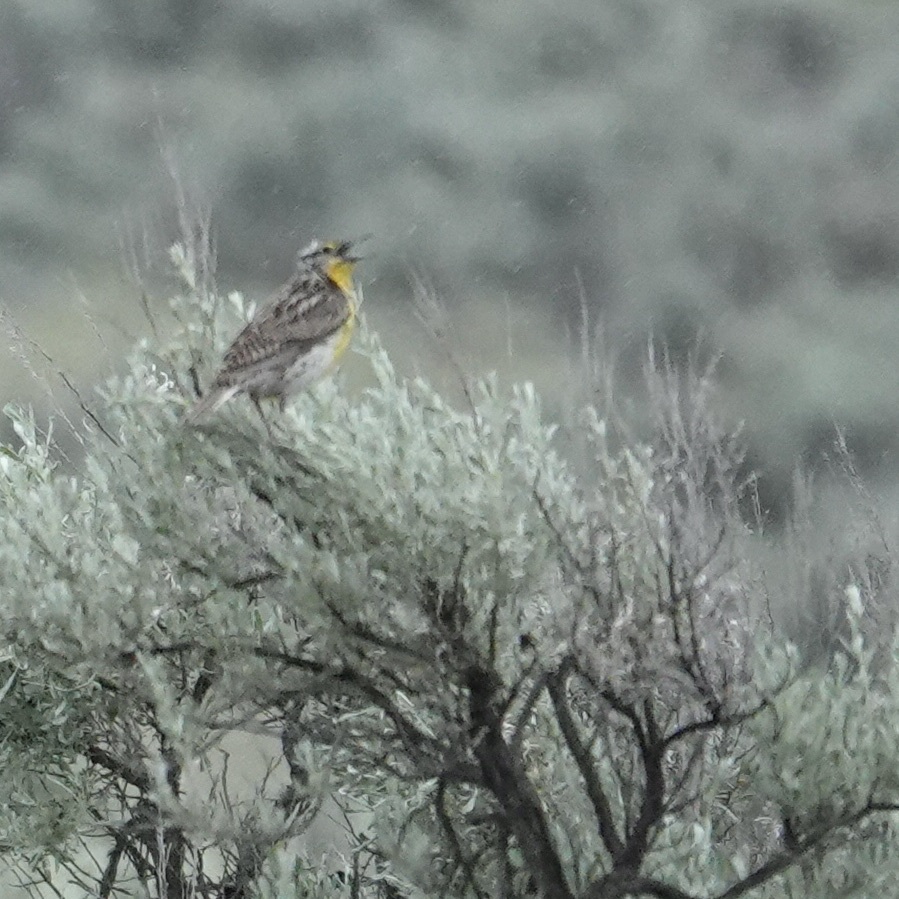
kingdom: Animalia
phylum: Chordata
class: Aves
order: Passeriformes
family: Icteridae
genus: Sturnella
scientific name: Sturnella neglecta
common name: Western meadowlark
